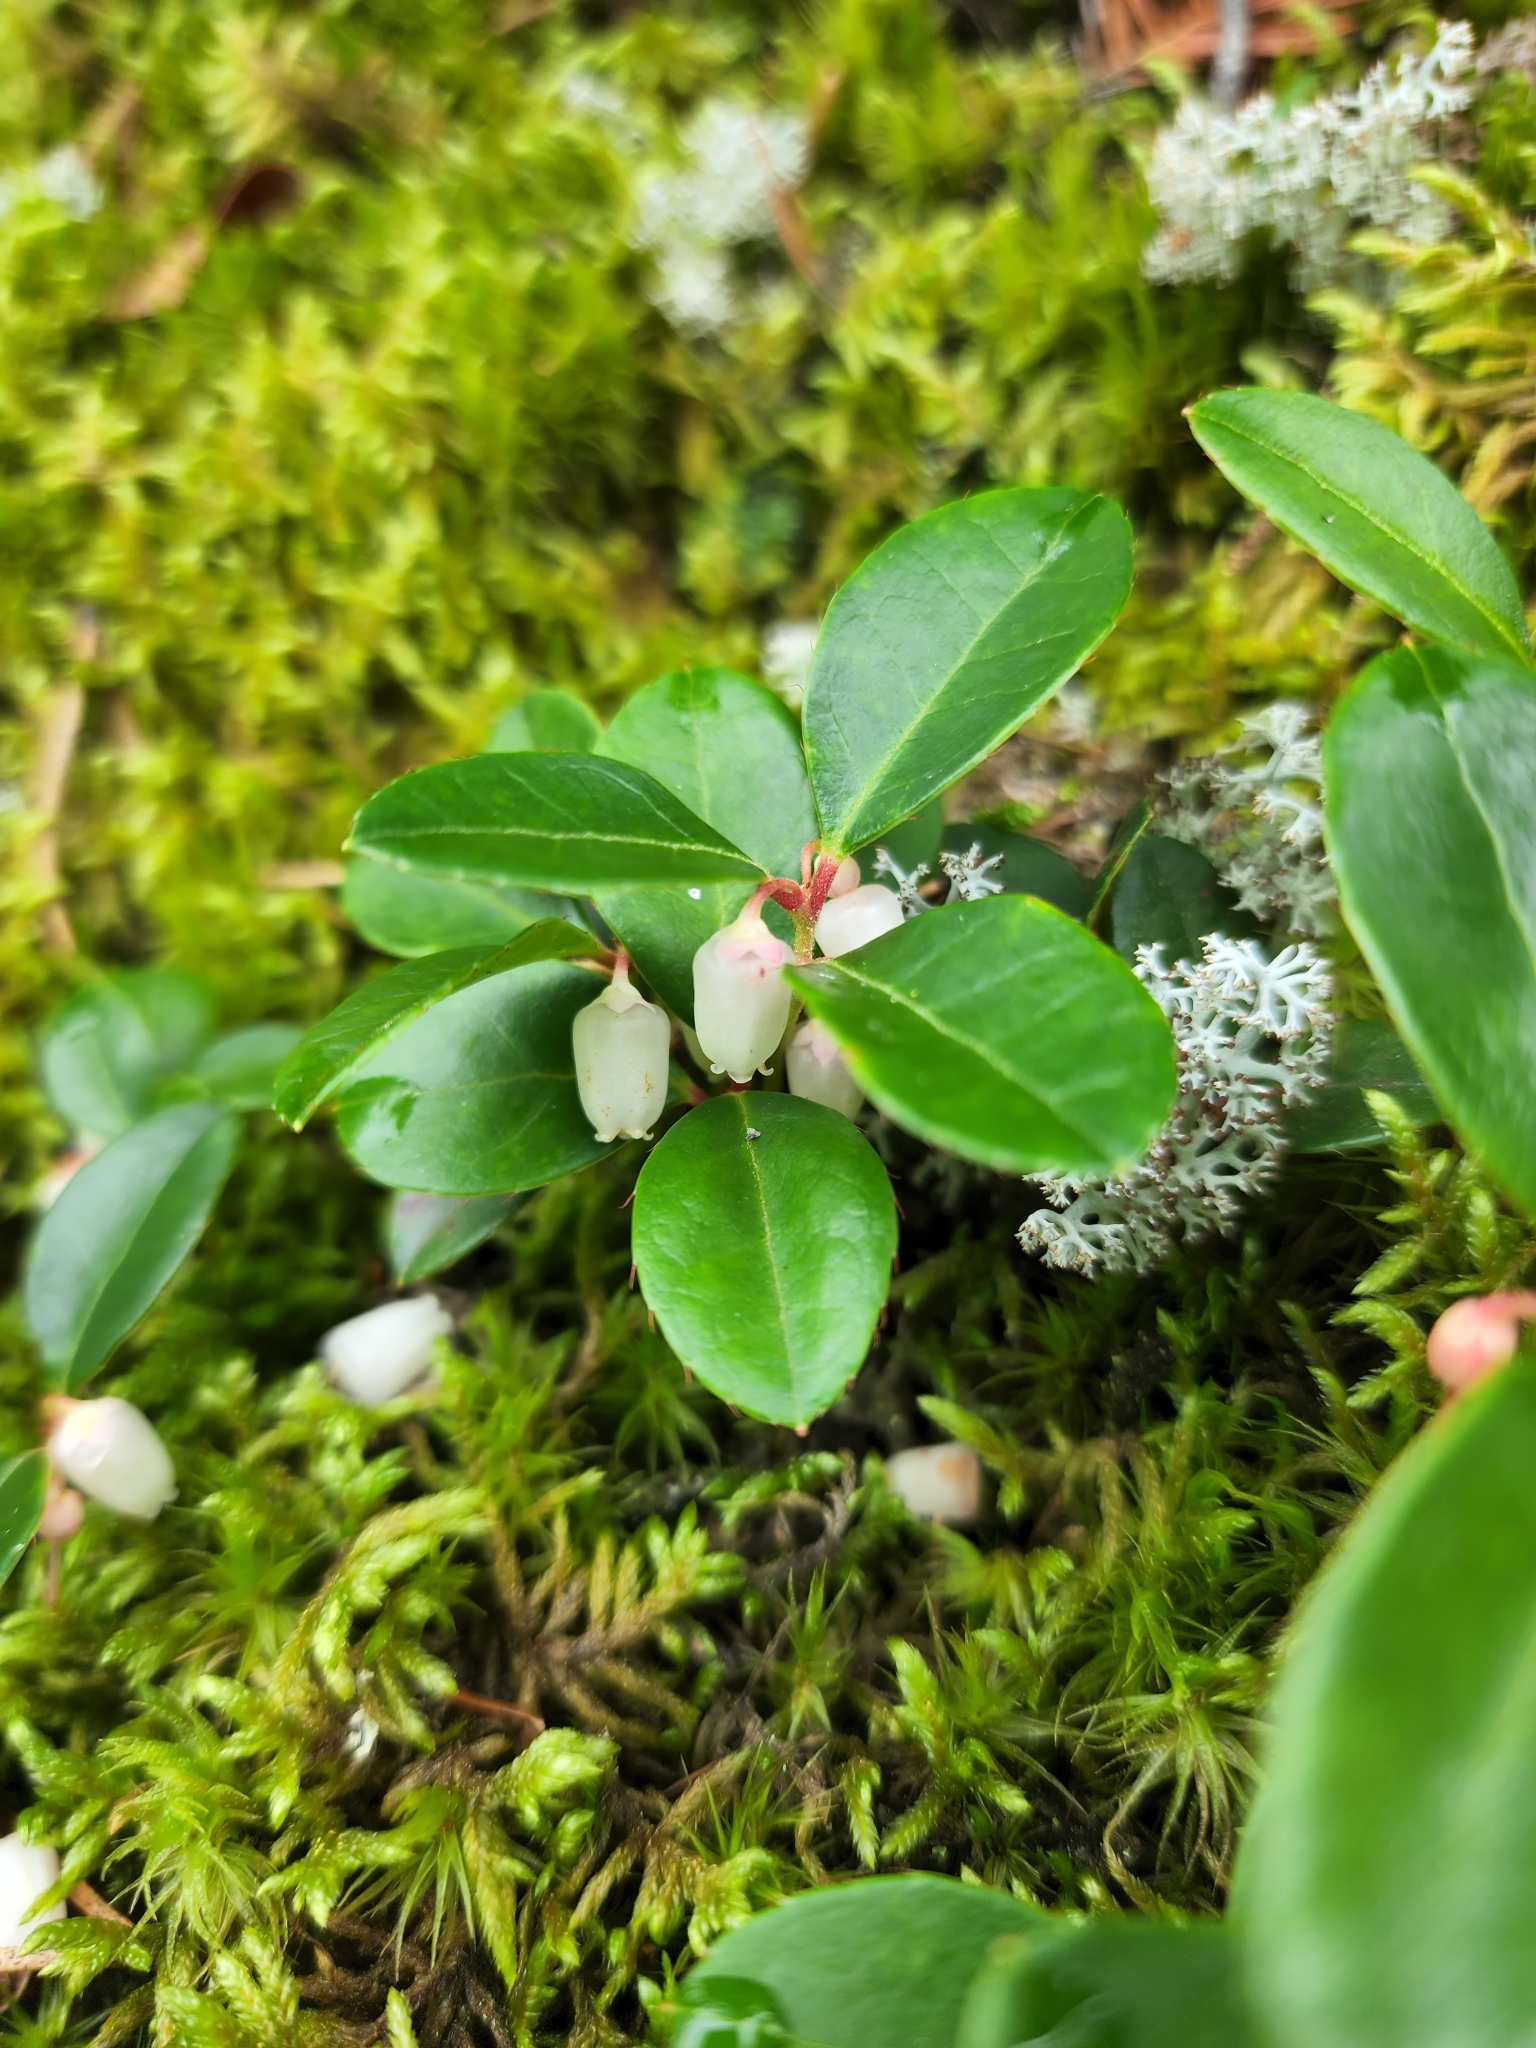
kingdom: Plantae
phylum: Tracheophyta
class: Magnoliopsida
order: Ericales
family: Ericaceae
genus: Gaultheria
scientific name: Gaultheria procumbens
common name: Checkerberry
